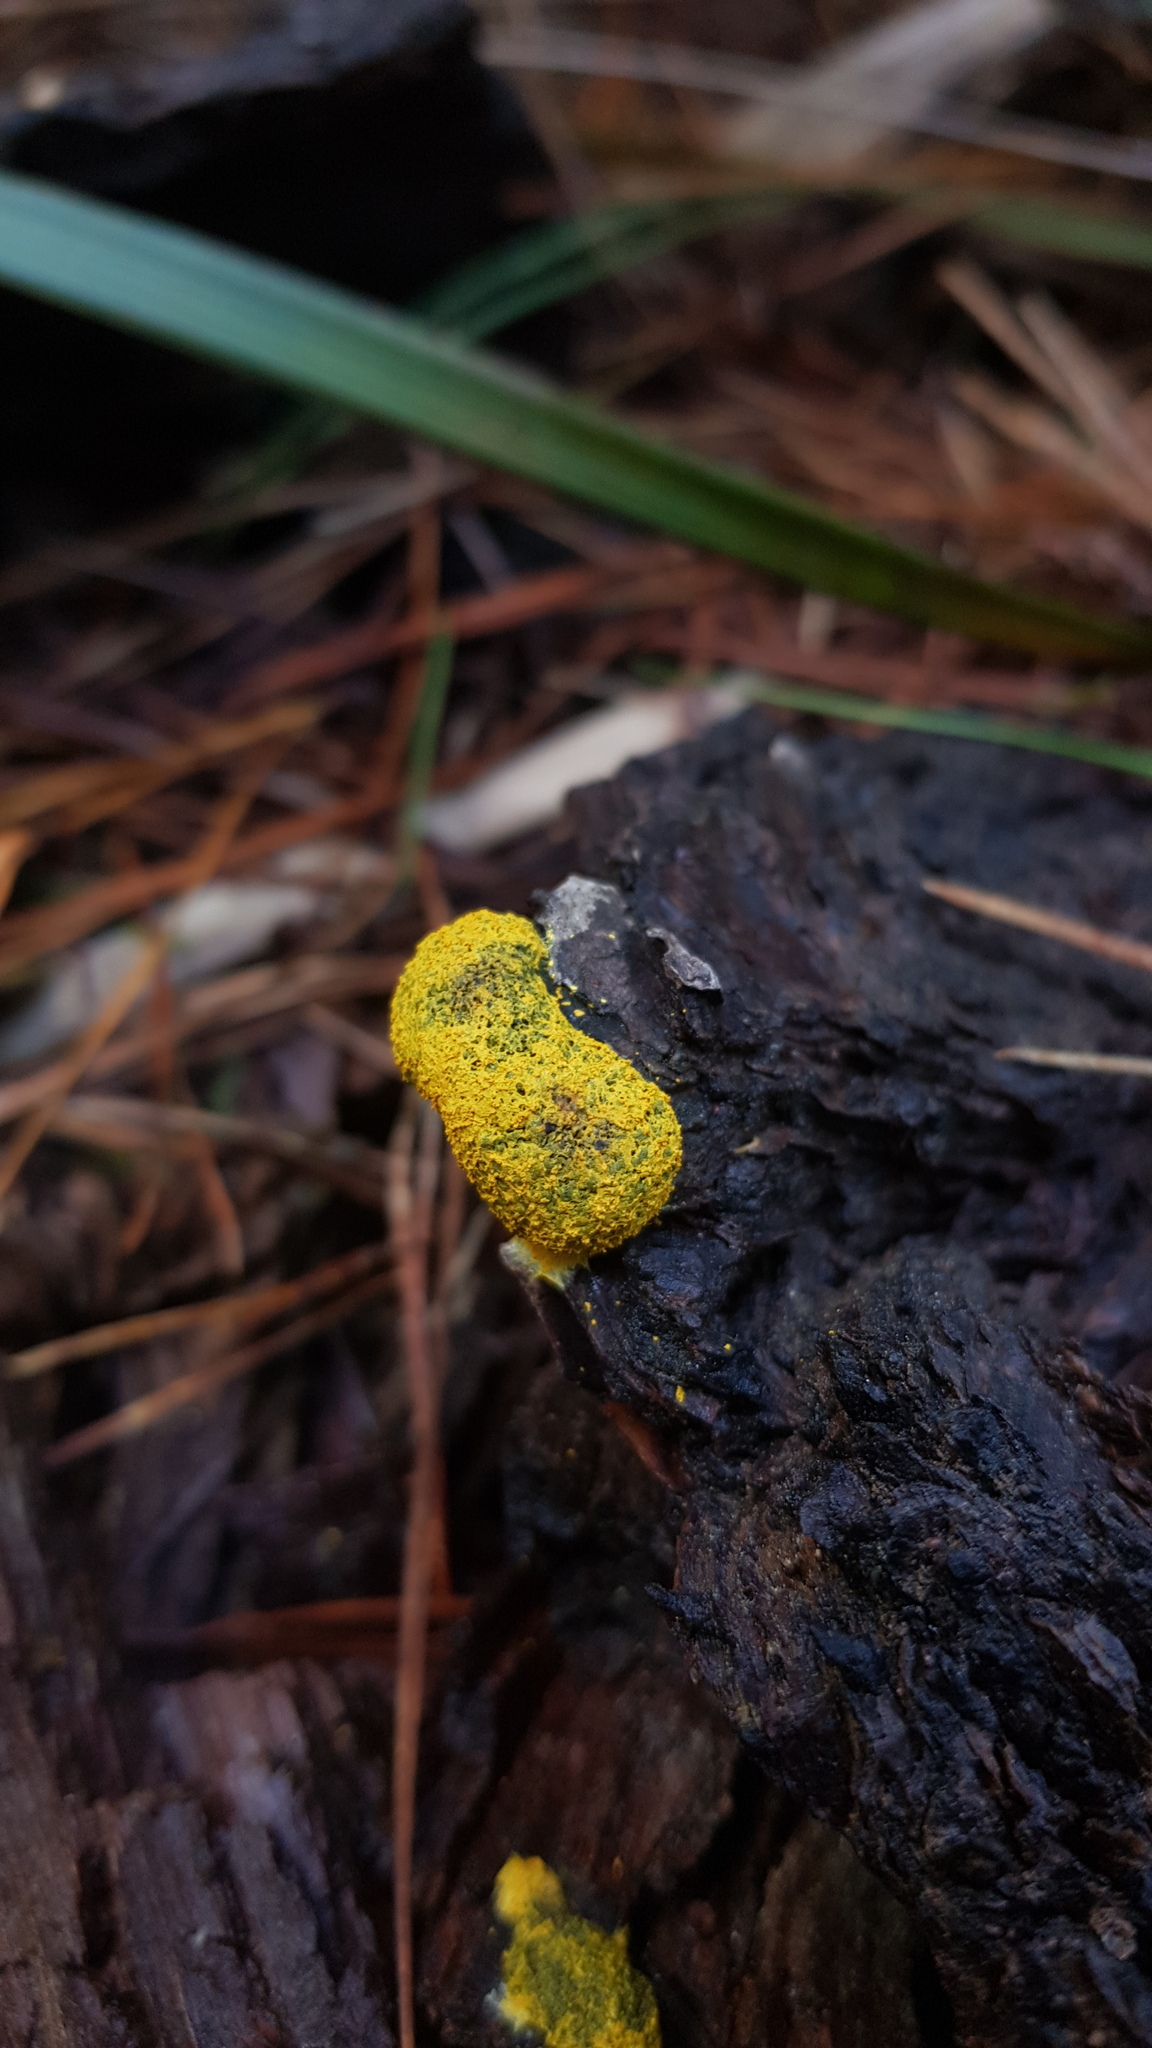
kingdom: Protozoa
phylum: Mycetozoa
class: Myxomycetes
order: Physarales
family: Physaraceae
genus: Fuligo
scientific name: Fuligo septica
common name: Dog vomit slime mold
